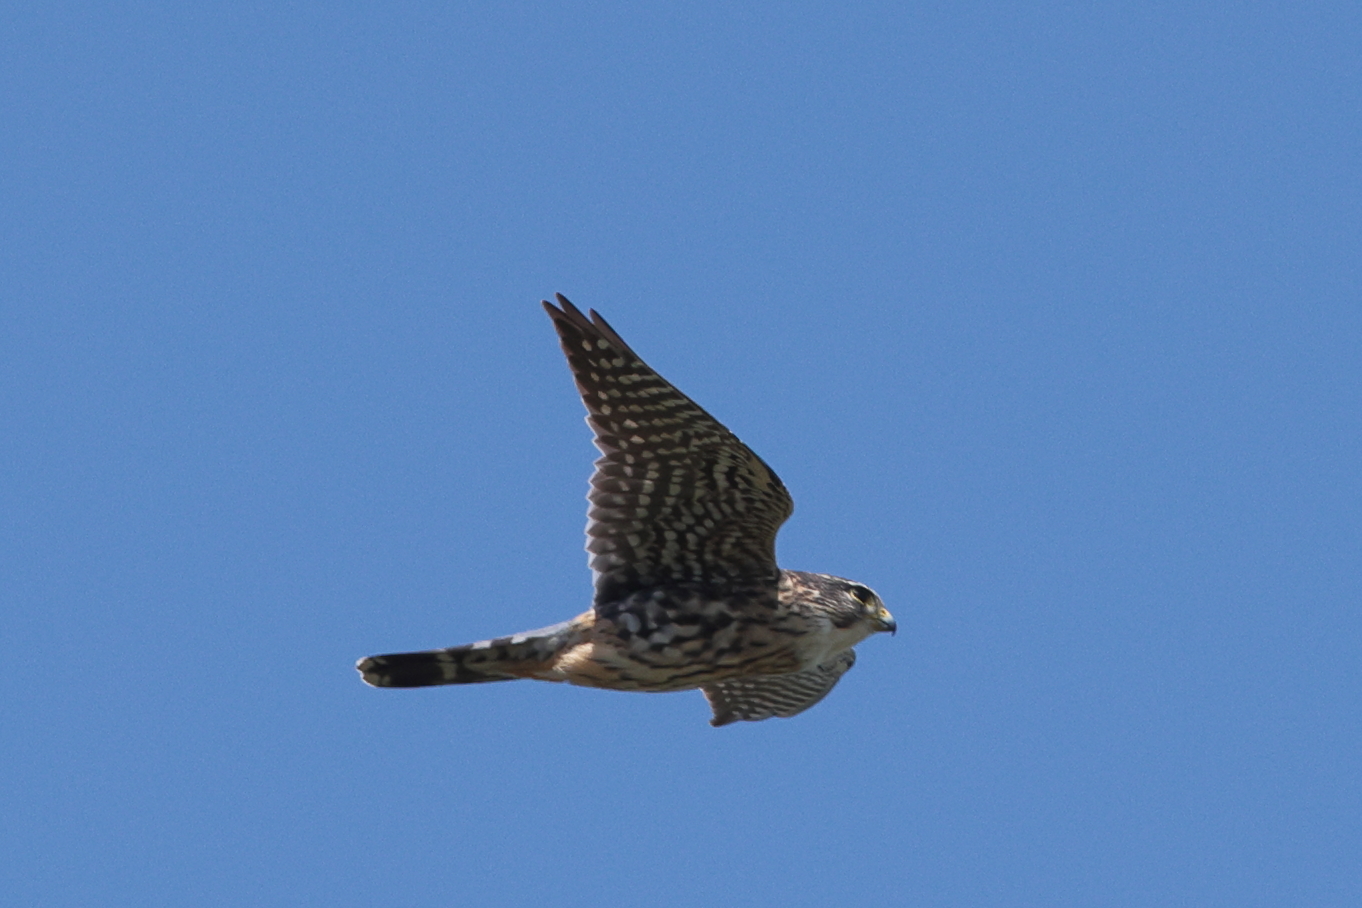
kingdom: Animalia
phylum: Chordata
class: Aves
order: Falconiformes
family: Falconidae
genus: Falco
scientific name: Falco columbarius
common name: Merlin
